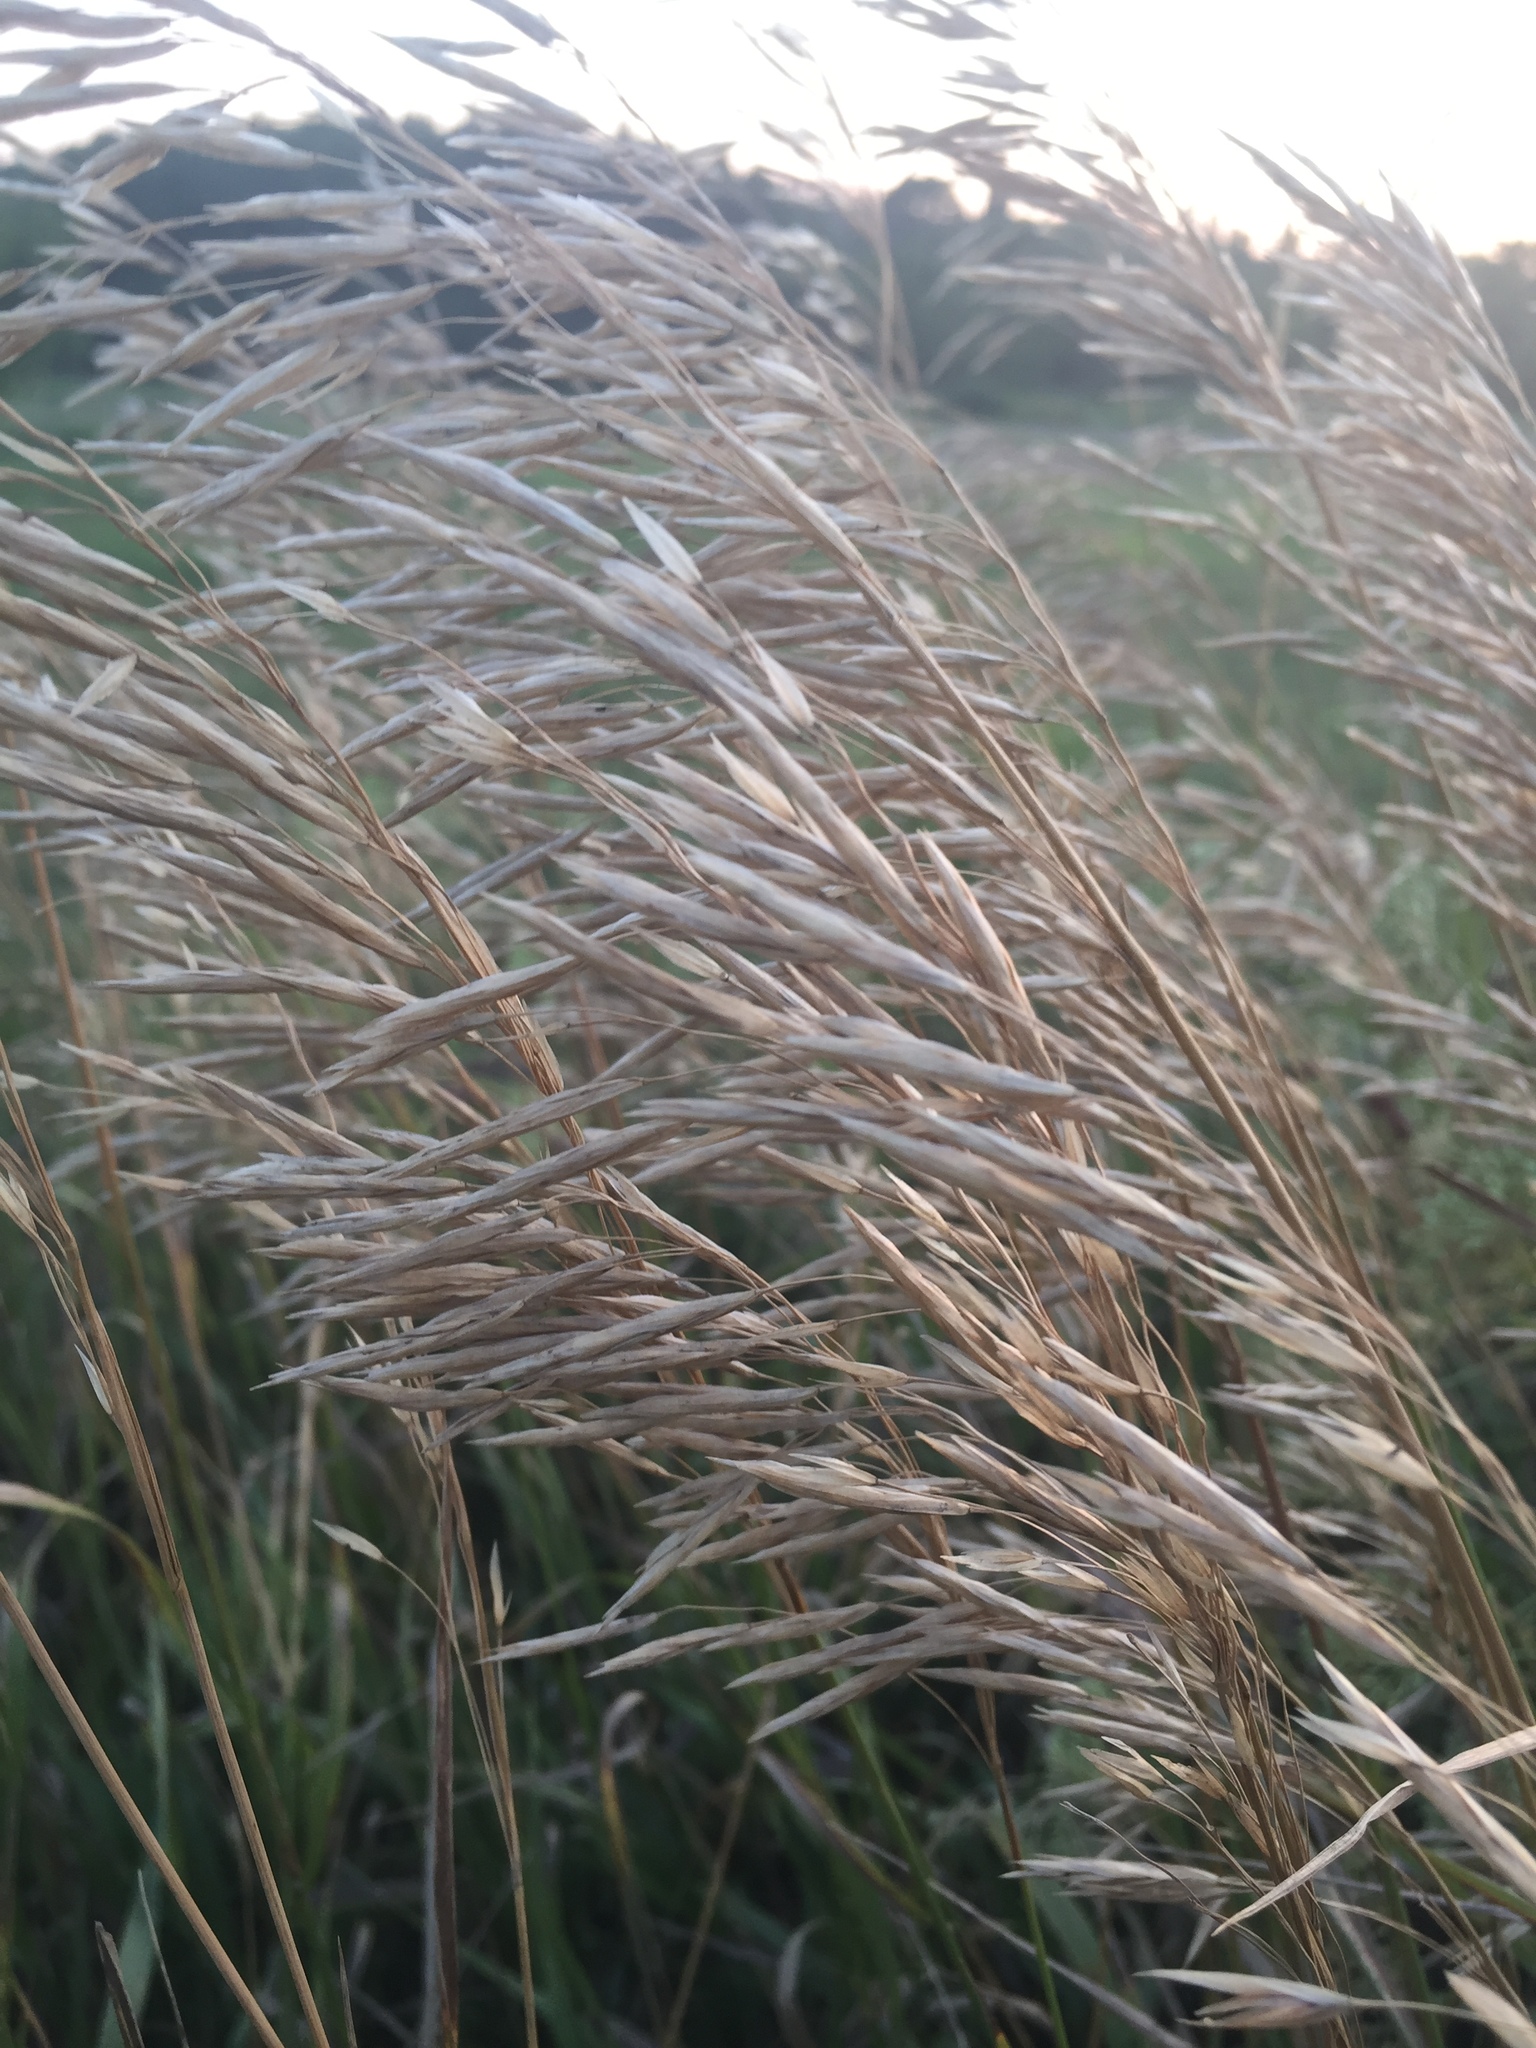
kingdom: Plantae
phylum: Tracheophyta
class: Liliopsida
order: Poales
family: Poaceae
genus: Bromus
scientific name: Bromus inermis
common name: Smooth brome
